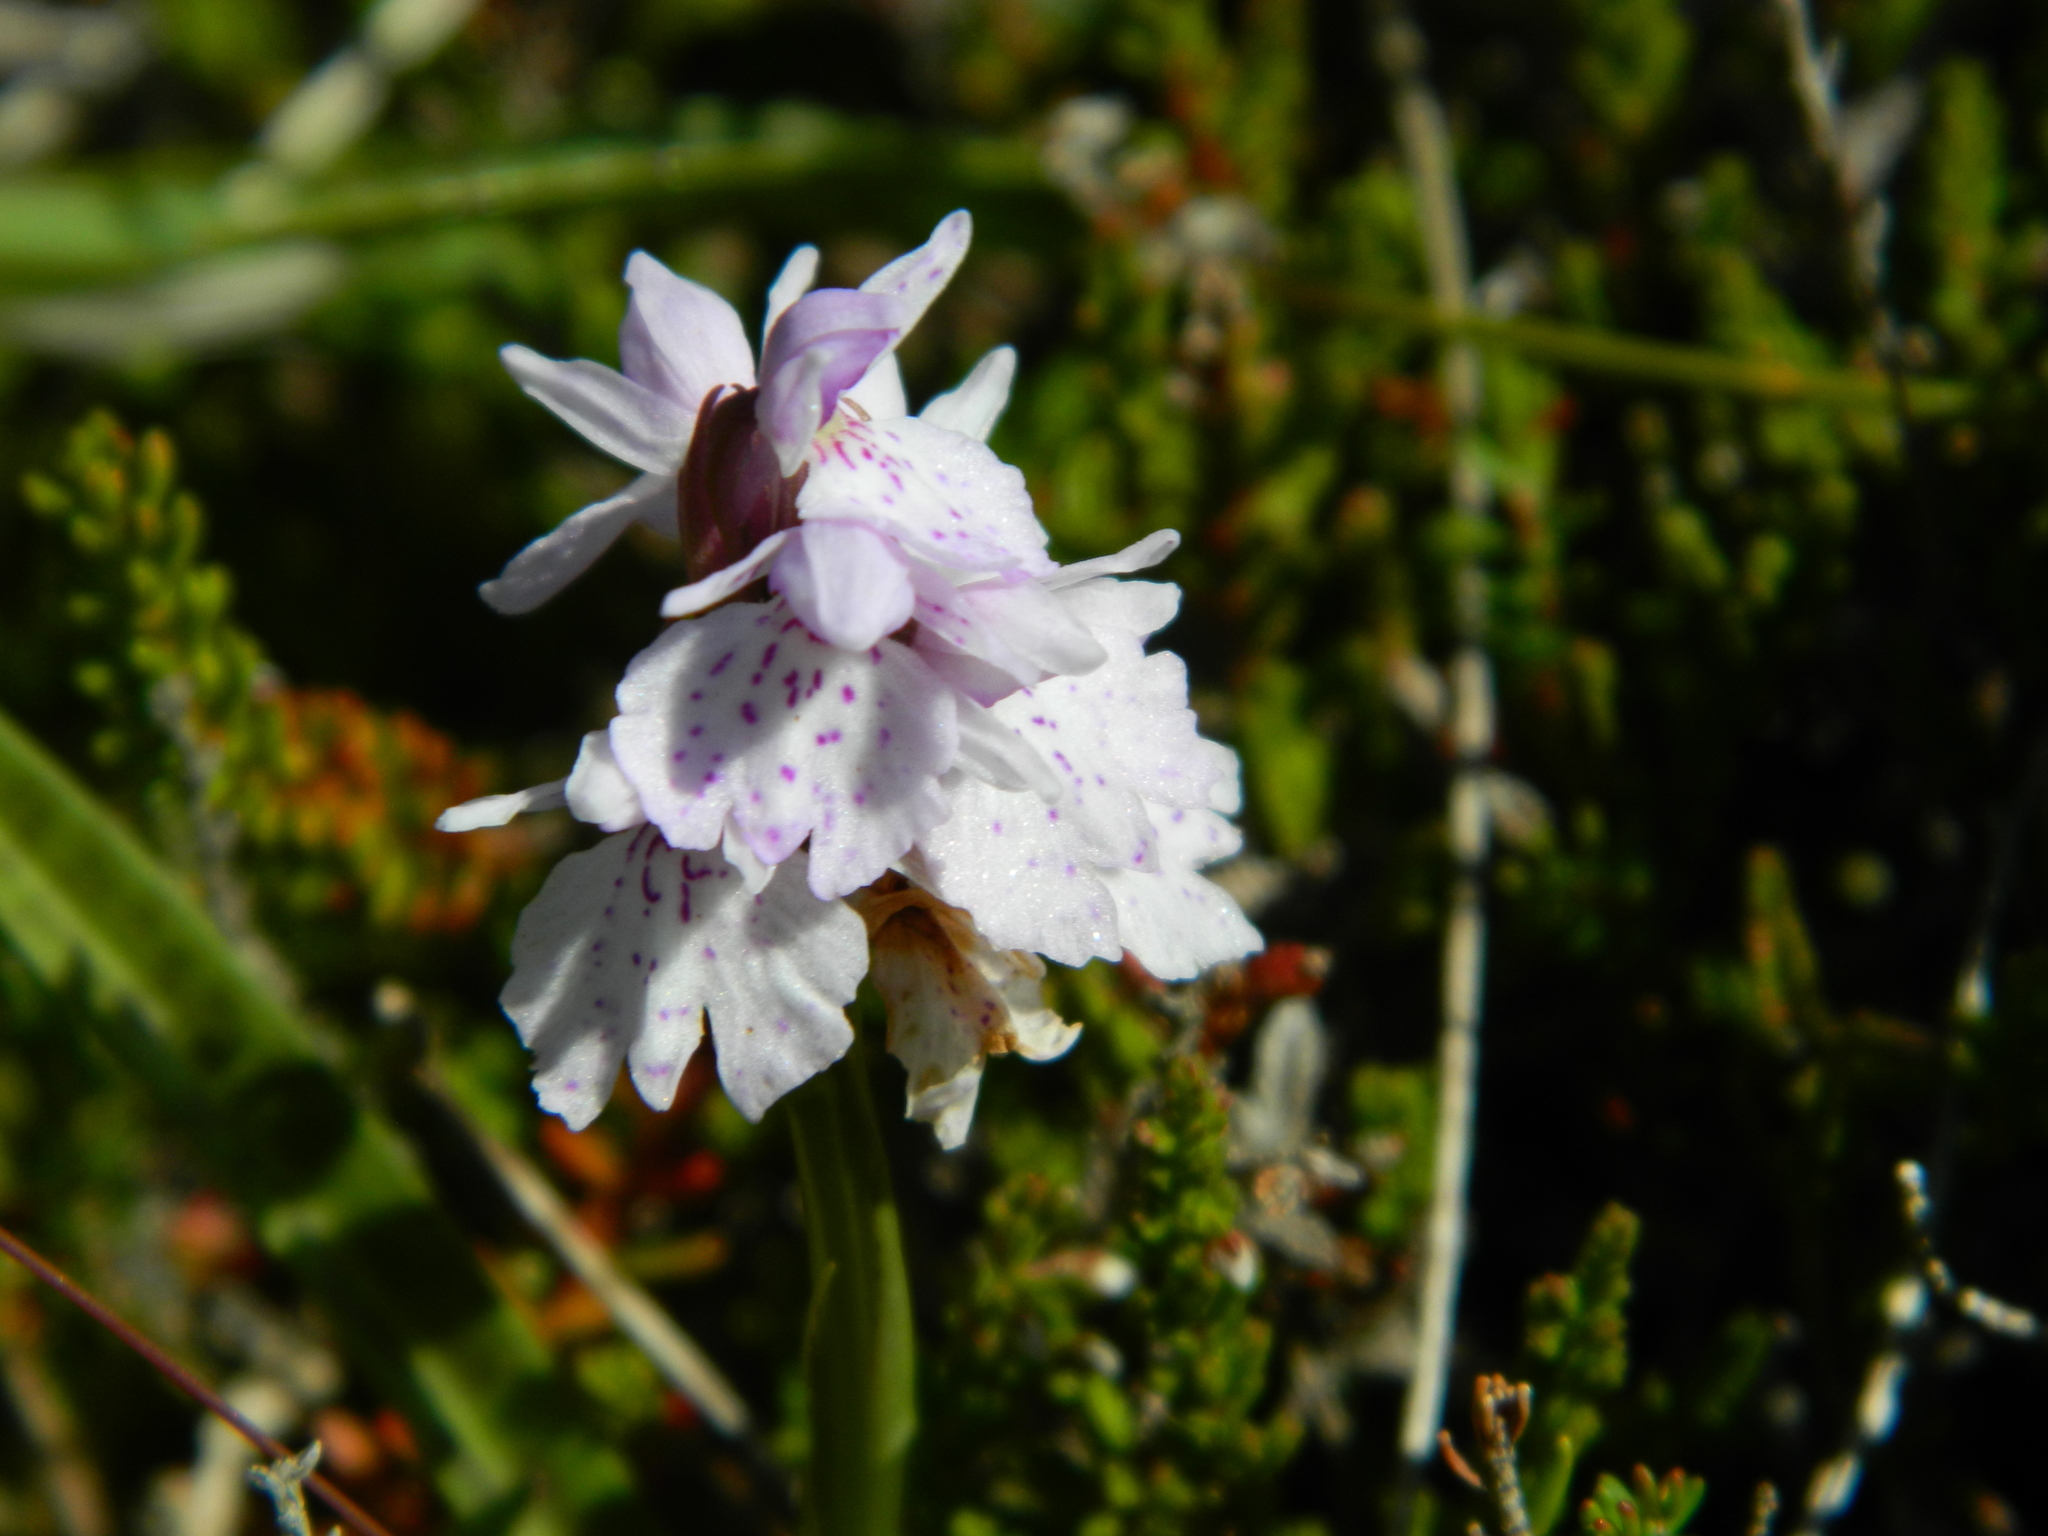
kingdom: Plantae
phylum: Tracheophyta
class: Liliopsida
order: Asparagales
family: Orchidaceae
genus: Dactylorhiza
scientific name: Dactylorhiza maculata
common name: Heath spotted-orchid
